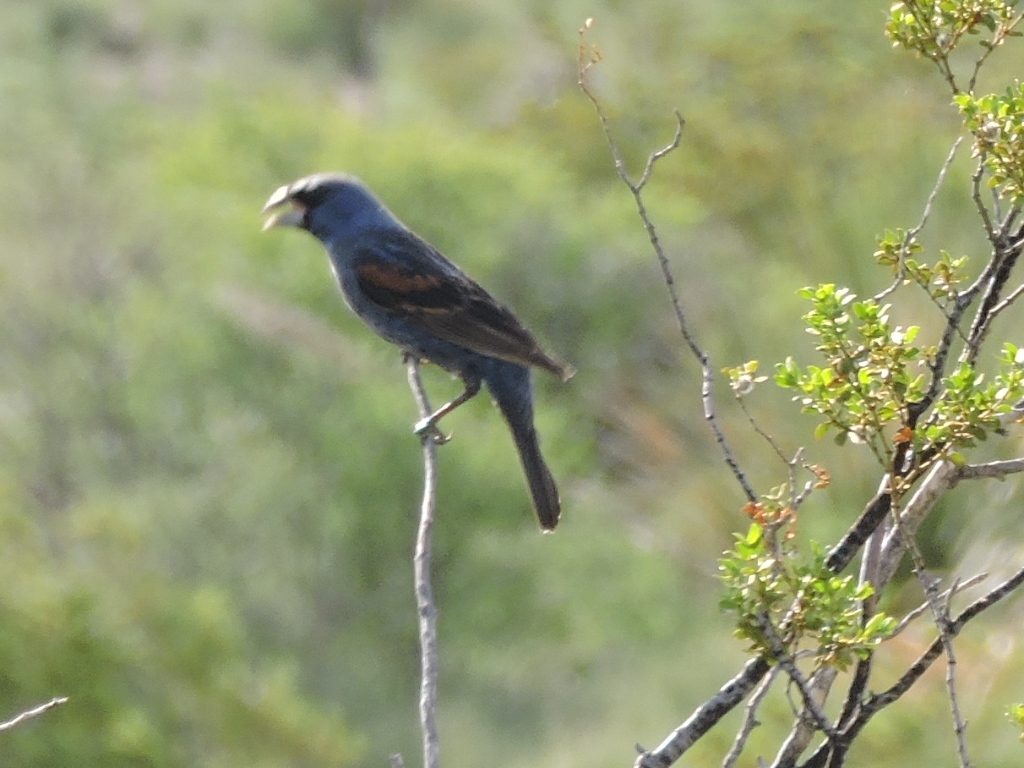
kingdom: Animalia
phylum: Chordata
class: Aves
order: Passeriformes
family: Cardinalidae
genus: Passerina
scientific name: Passerina caerulea
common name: Blue grosbeak
